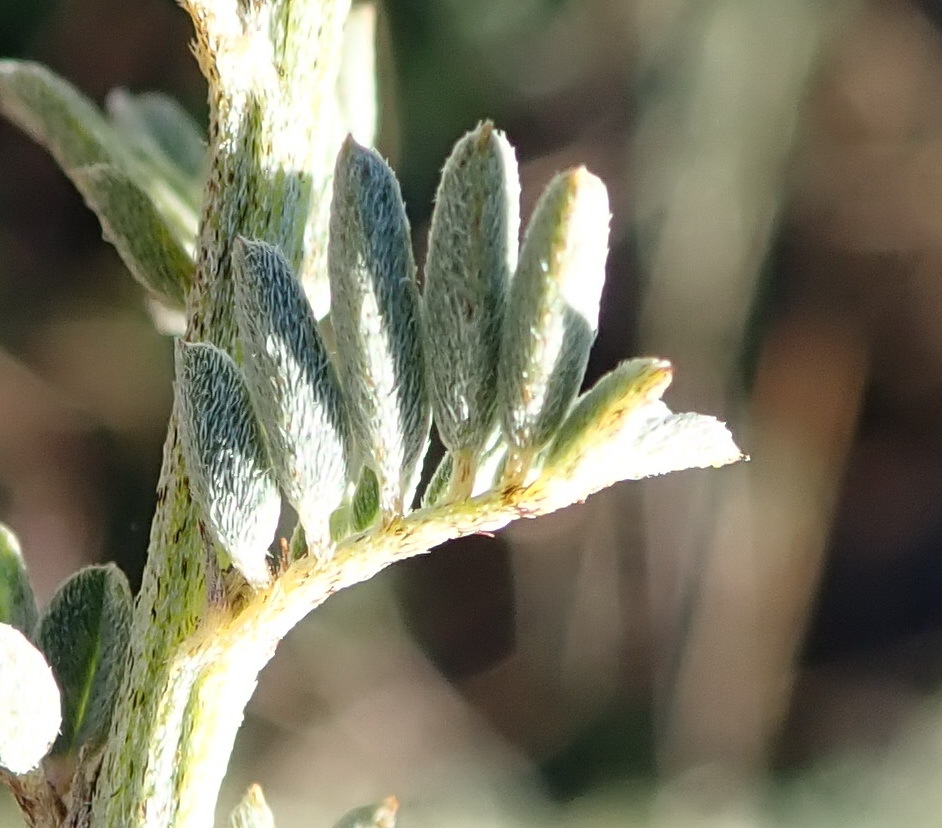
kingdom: Plantae
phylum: Tracheophyta
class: Magnoliopsida
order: Fabales
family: Fabaceae
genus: Indigofera
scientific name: Indigofera verrucosa
